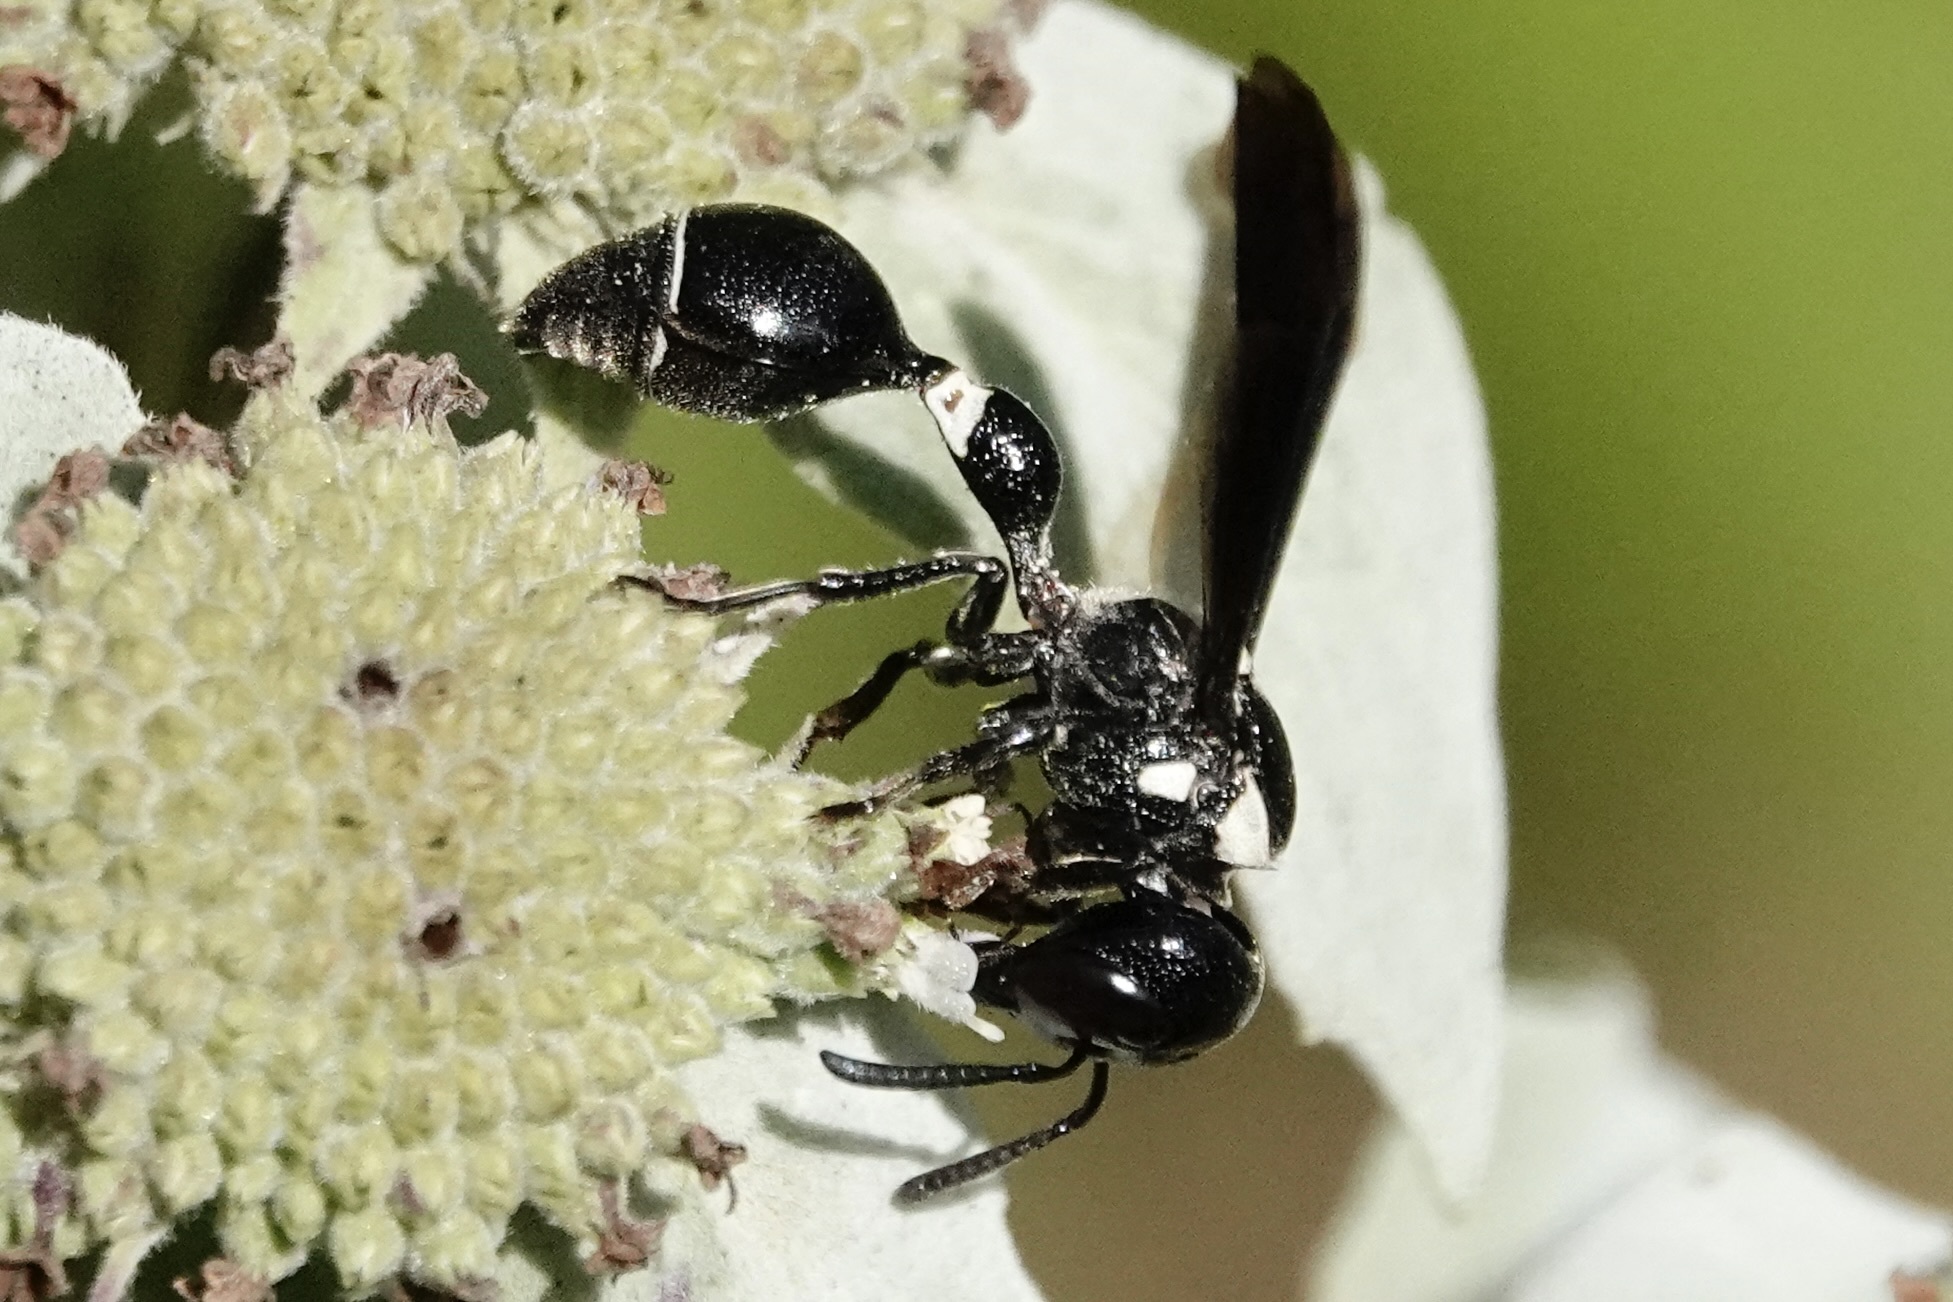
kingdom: Animalia
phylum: Arthropoda
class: Insecta
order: Hymenoptera
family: Eumenidae
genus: Zethus
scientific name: Zethus spinipes
